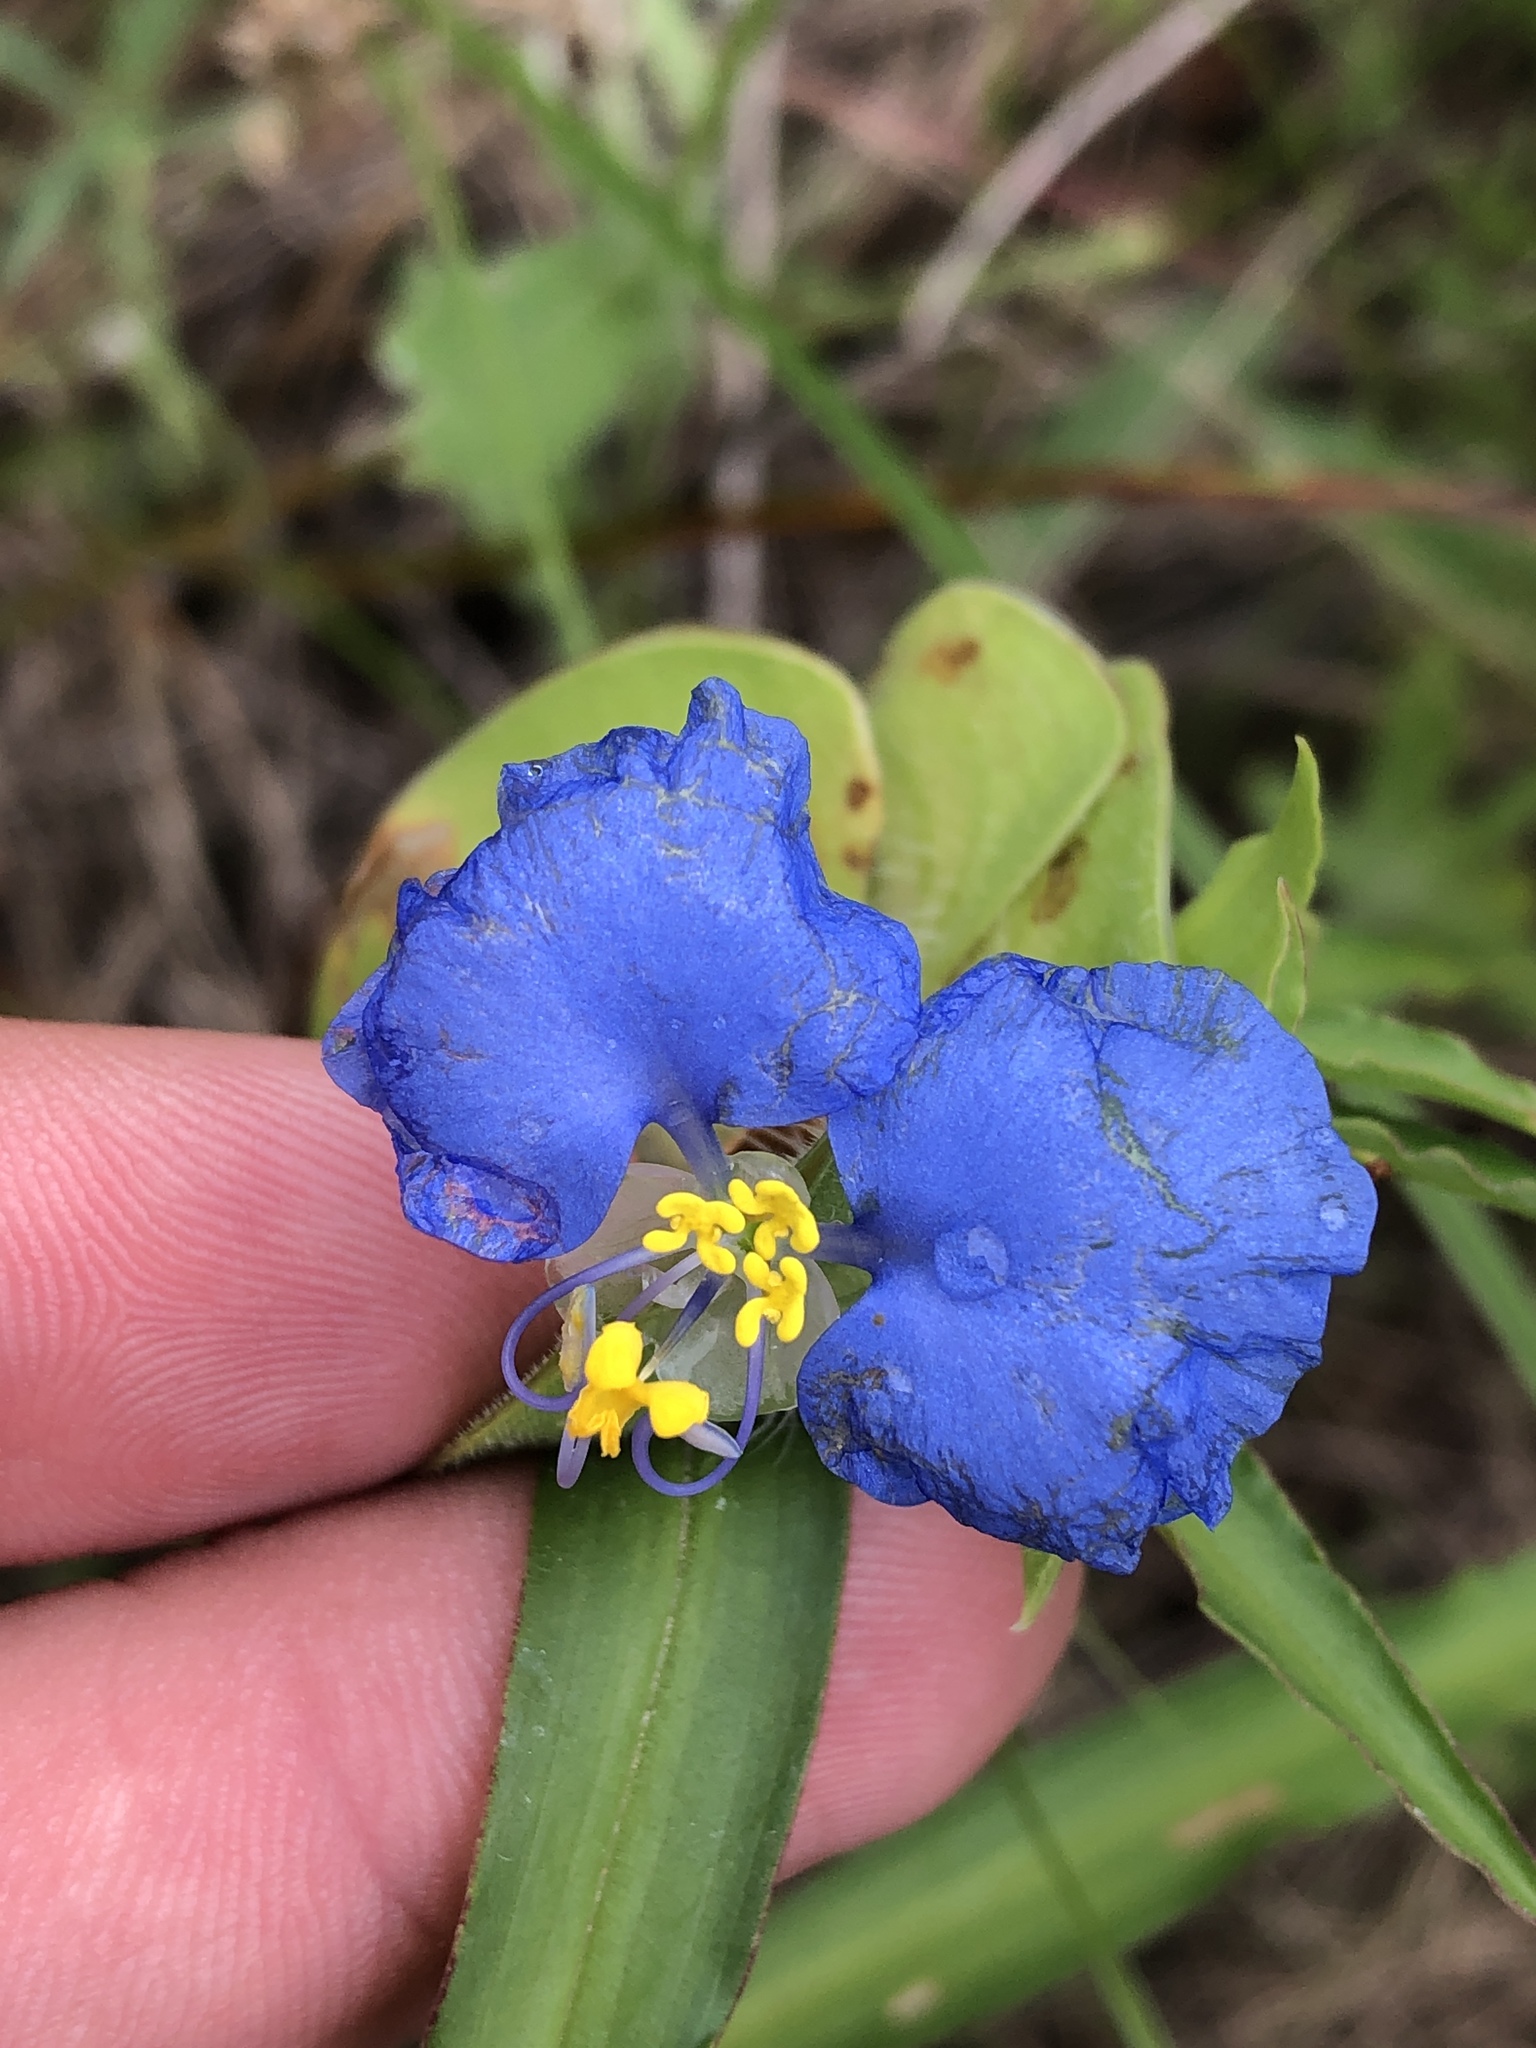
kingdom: Plantae
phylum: Tracheophyta
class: Liliopsida
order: Commelinales
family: Commelinaceae
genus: Commelina
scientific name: Commelina erecta
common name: Blousel blommetjie
